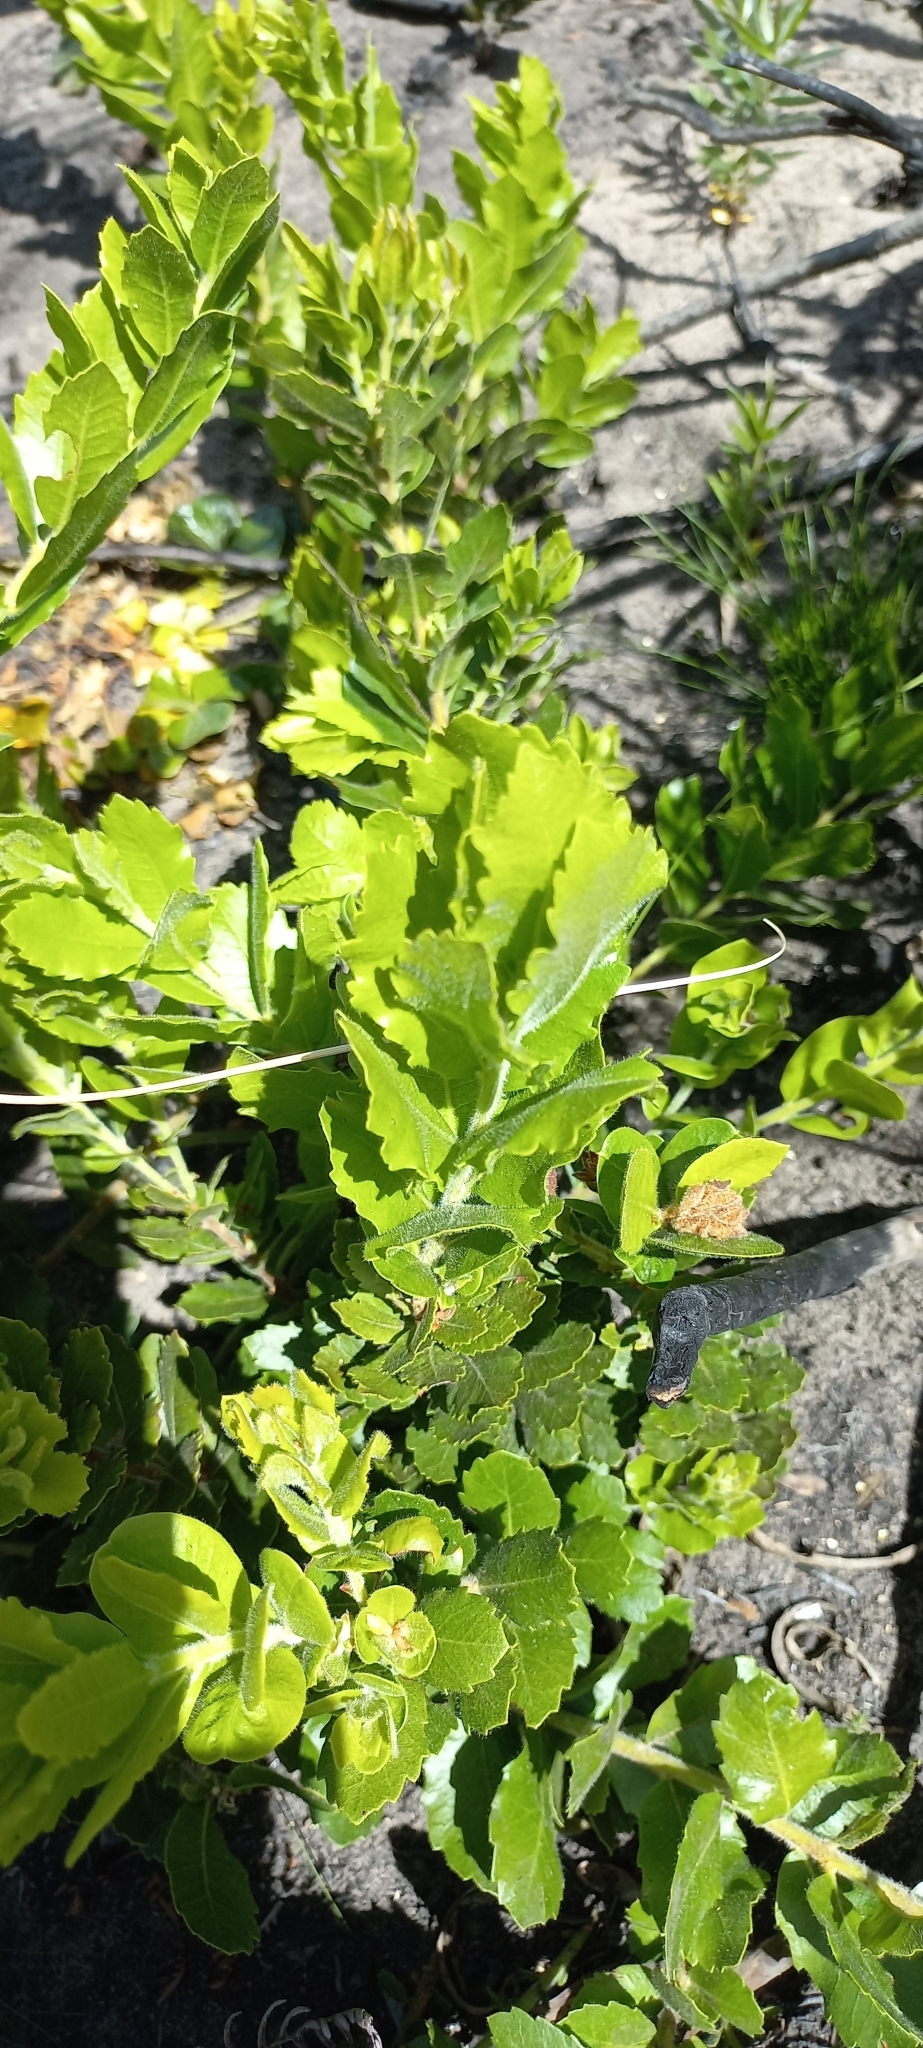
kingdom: Plantae
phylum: Tracheophyta
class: Magnoliopsida
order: Fagales
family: Myricaceae
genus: Morella
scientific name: Morella diversifolia
